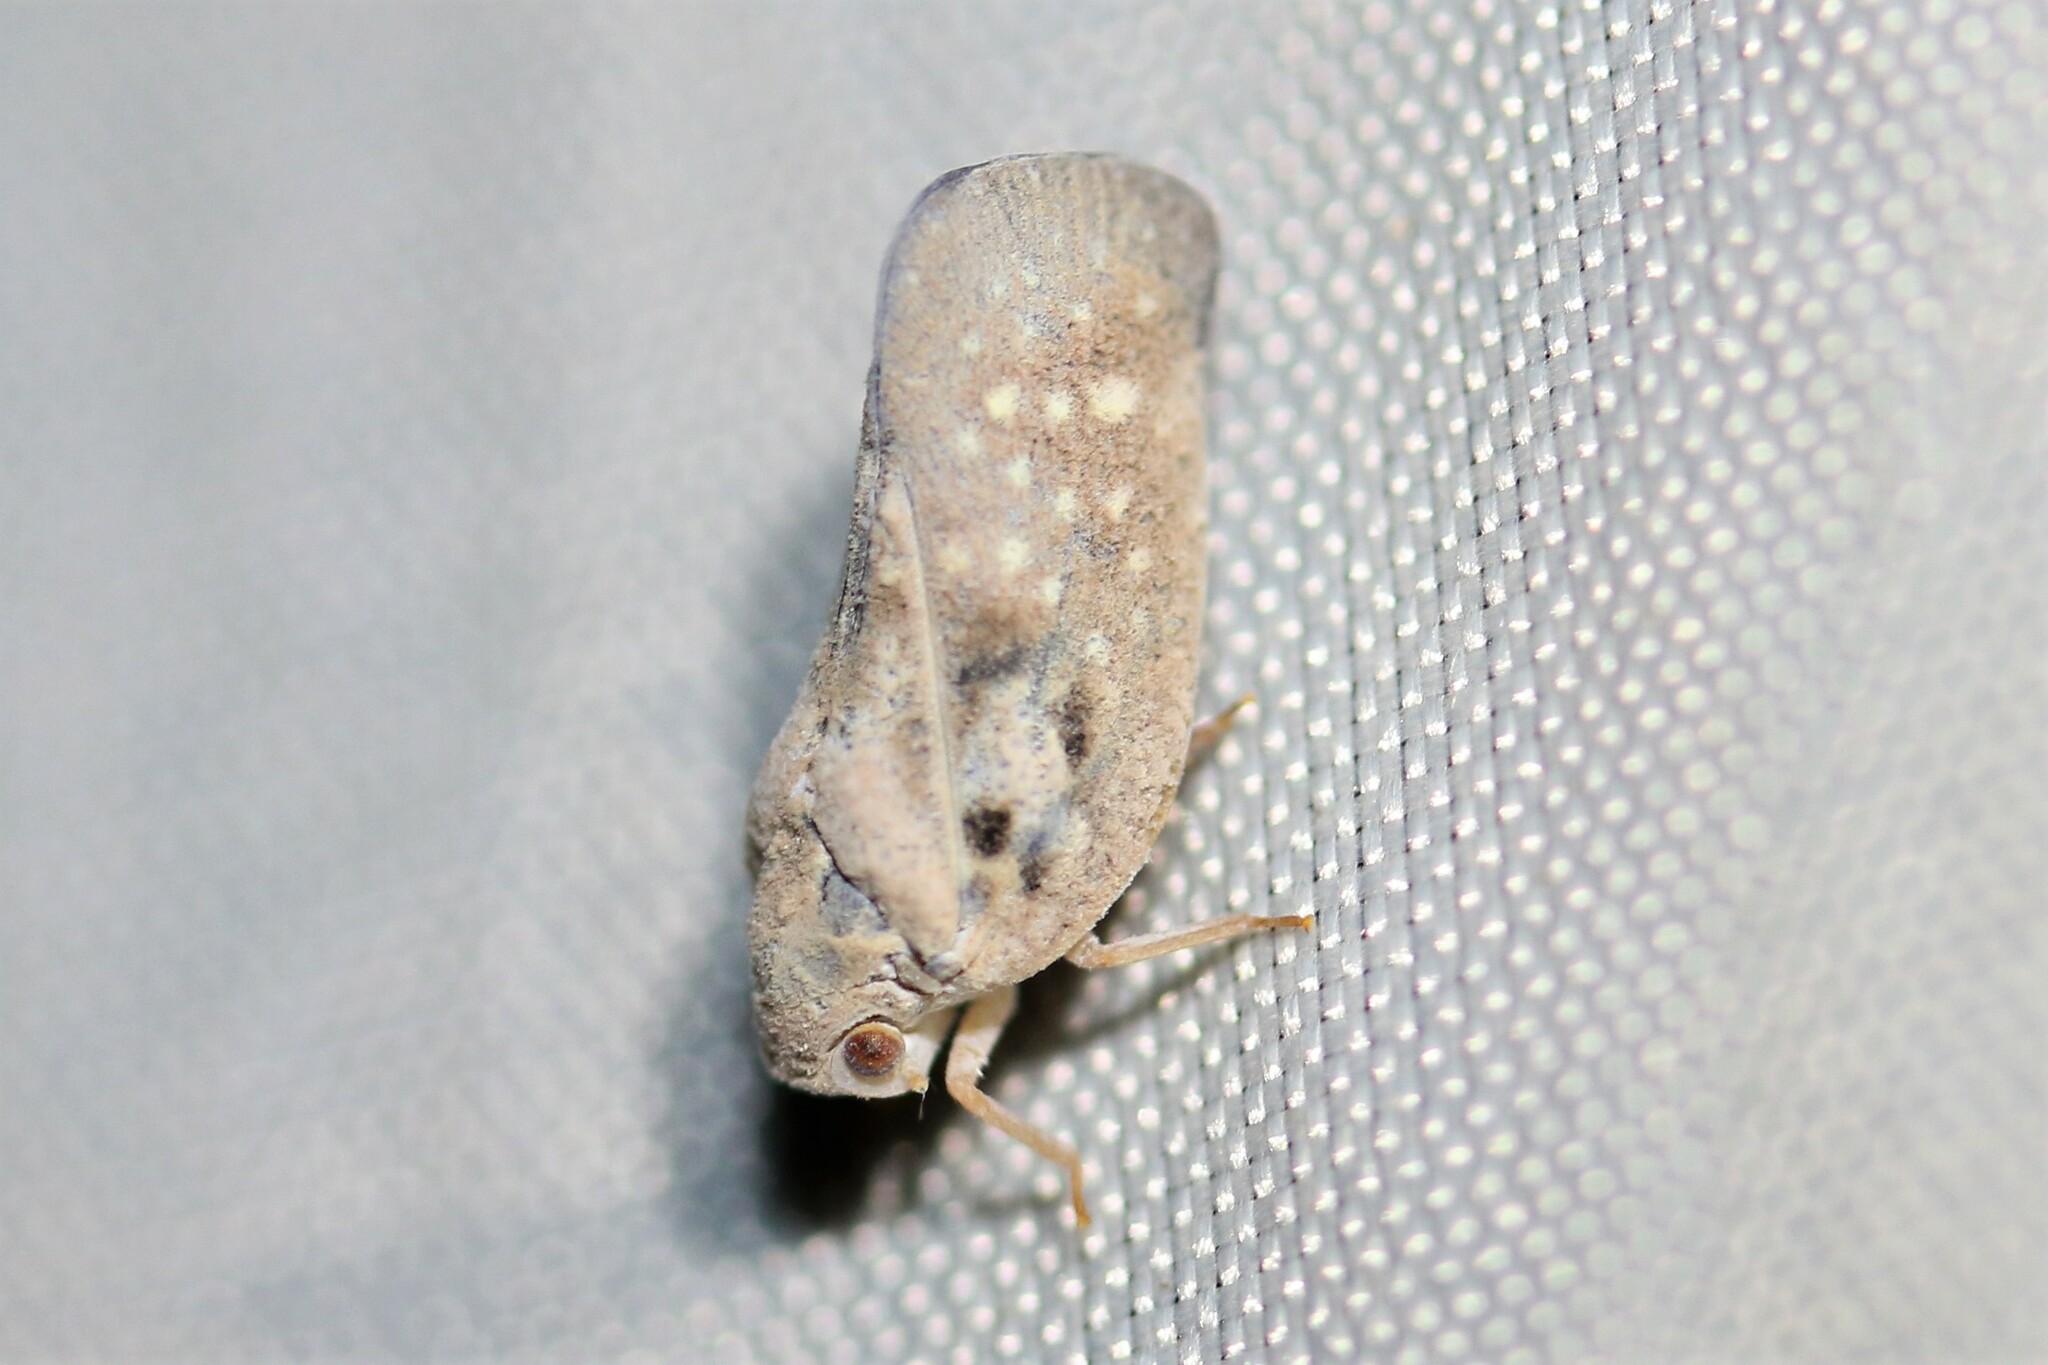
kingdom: Animalia
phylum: Arthropoda
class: Insecta
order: Hemiptera
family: Flatidae
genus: Metcalfa
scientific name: Metcalfa pruinosa
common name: Citrus flatid planthopper
